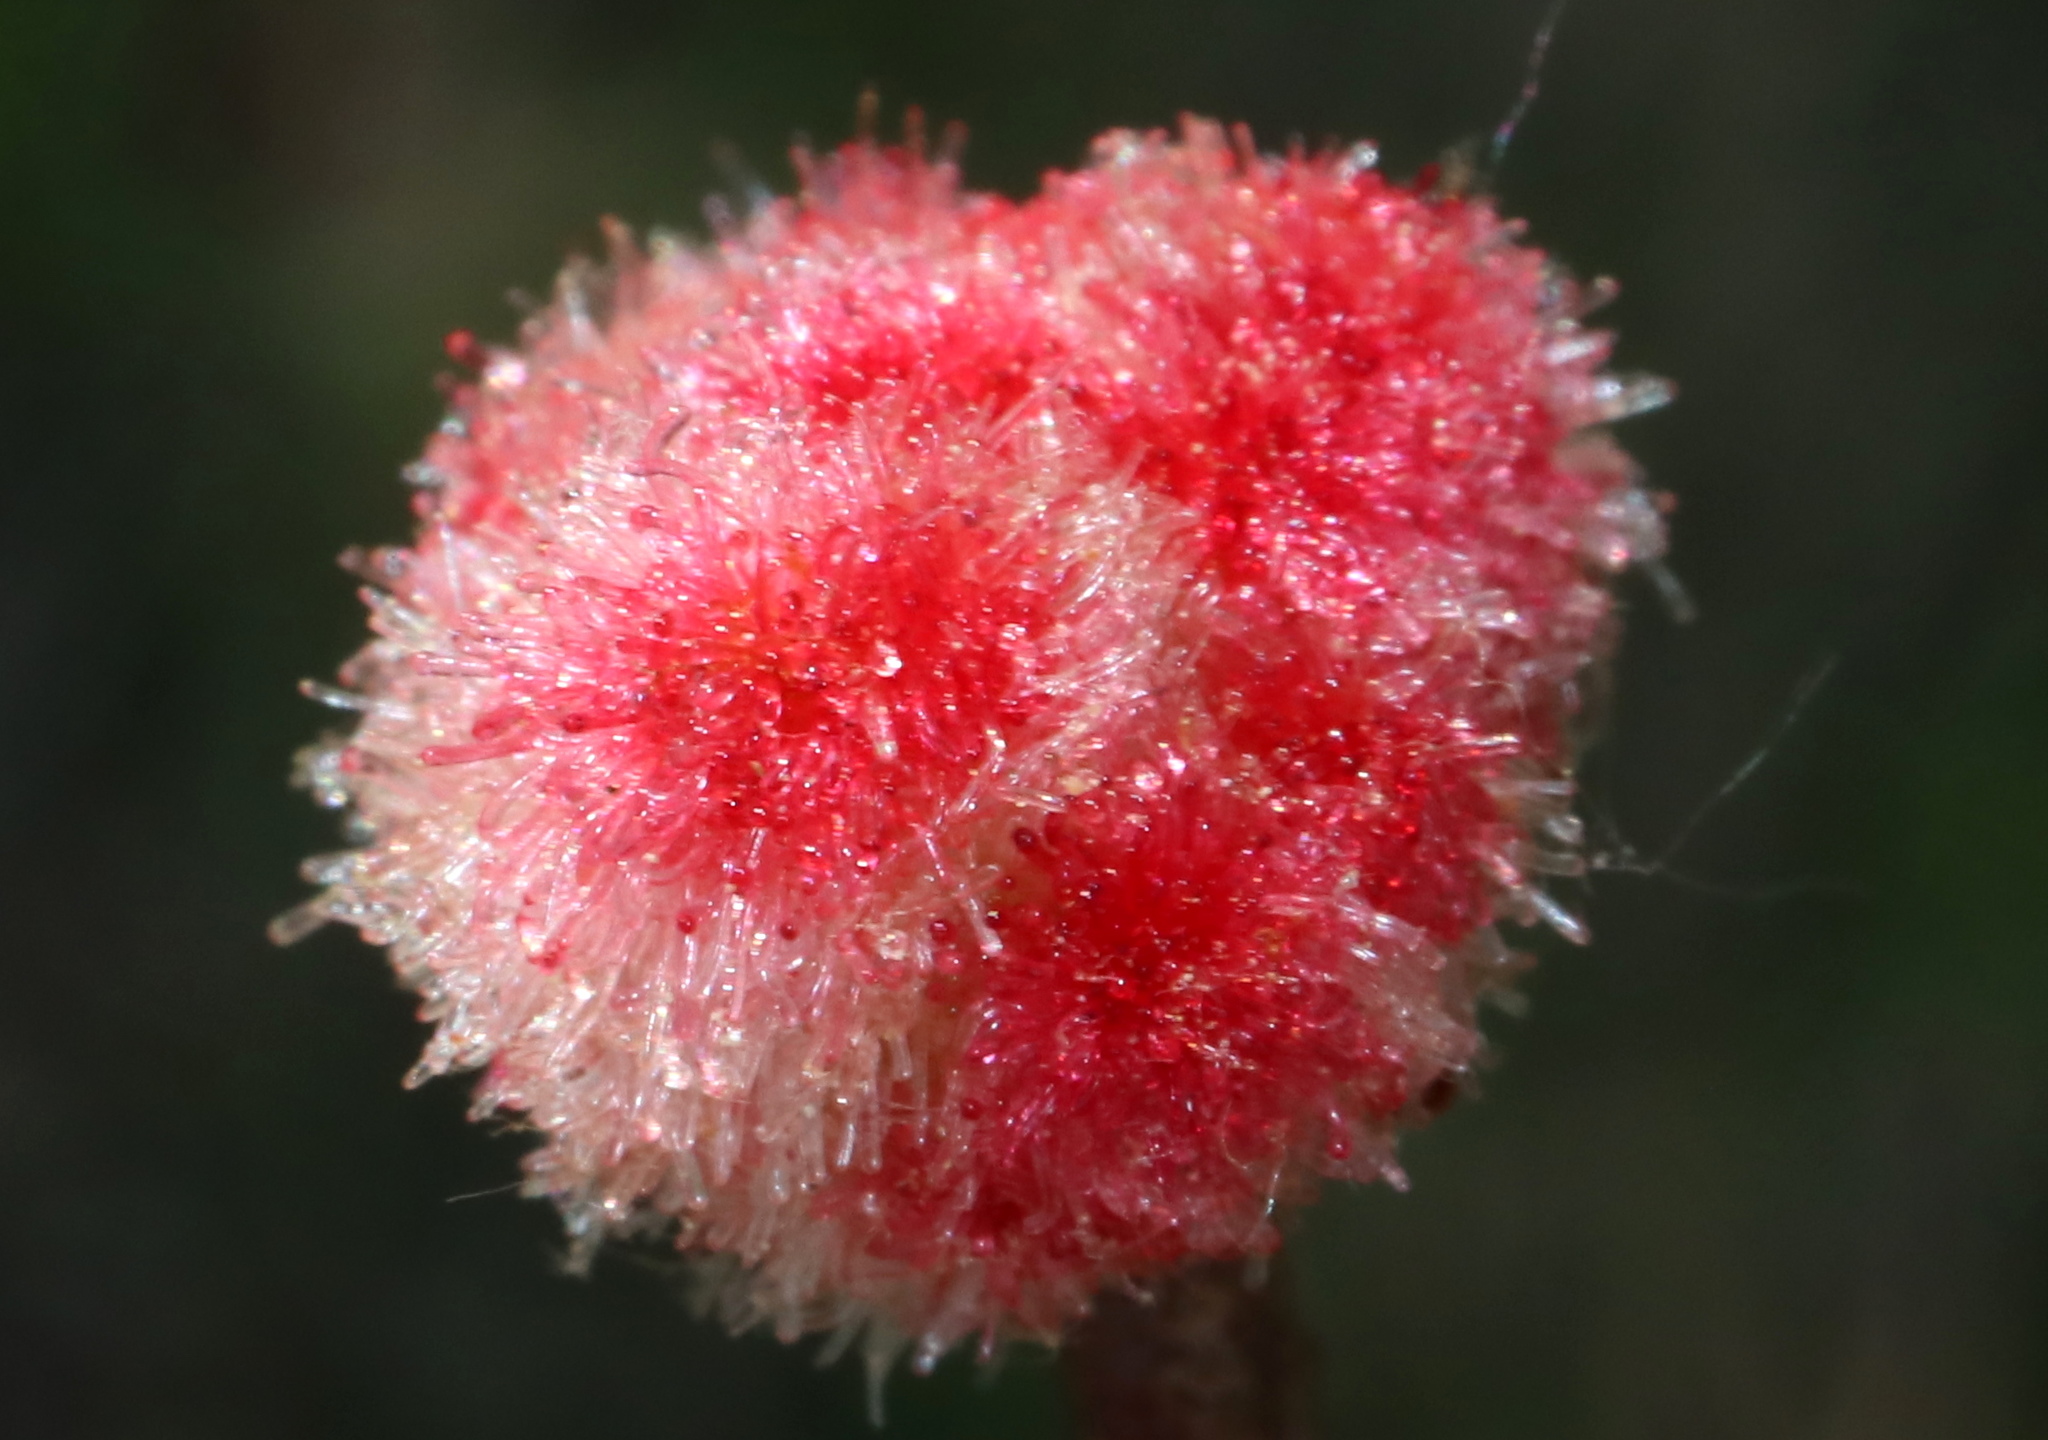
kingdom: Animalia
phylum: Arthropoda
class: Insecta
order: Hymenoptera
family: Cynipidae
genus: Callirhytis
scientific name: Callirhytis
